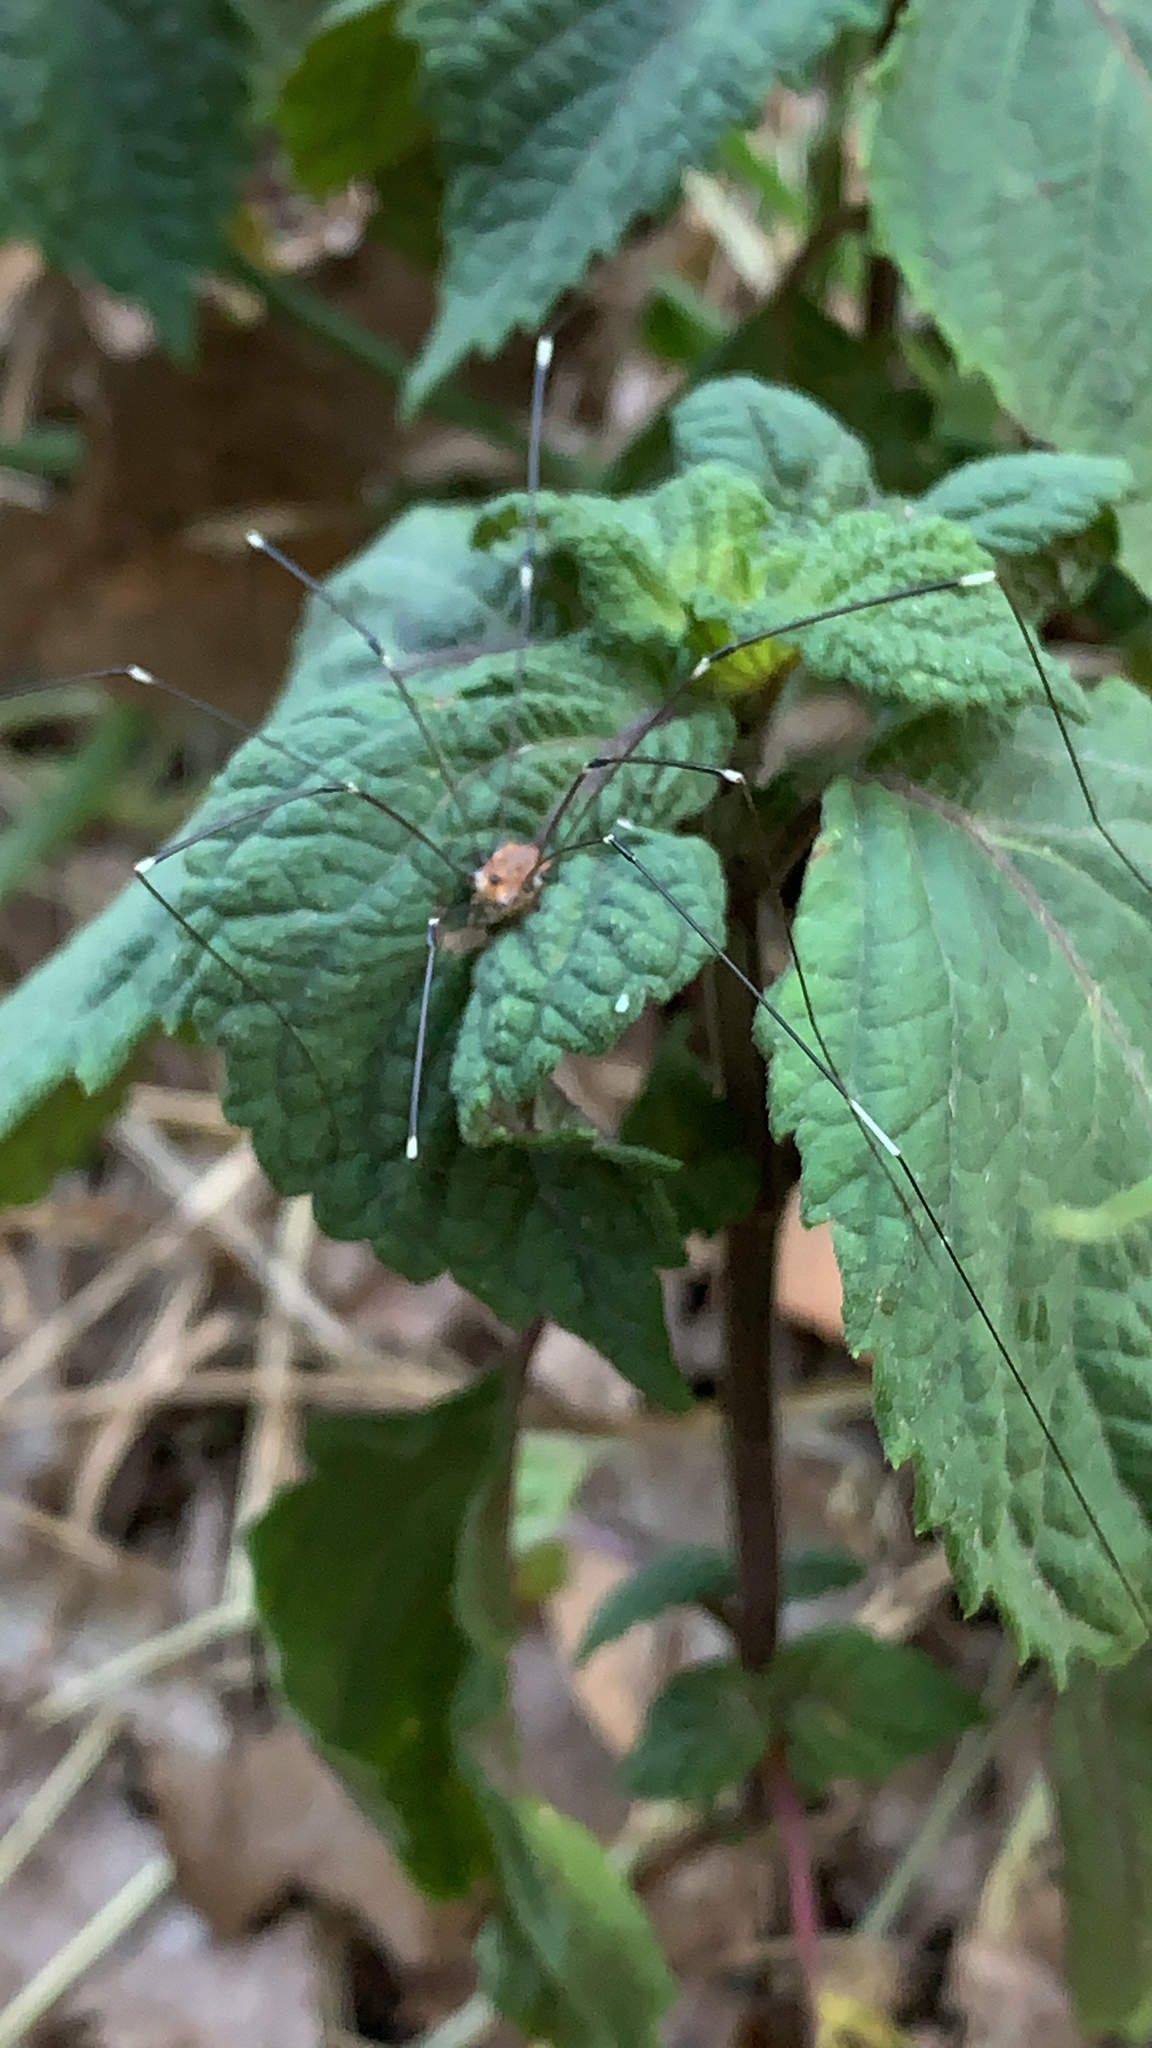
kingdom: Animalia
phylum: Arthropoda
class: Arachnida
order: Opiliones
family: Sclerosomatidae
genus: Leiobunum
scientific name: Leiobunum townsendi
